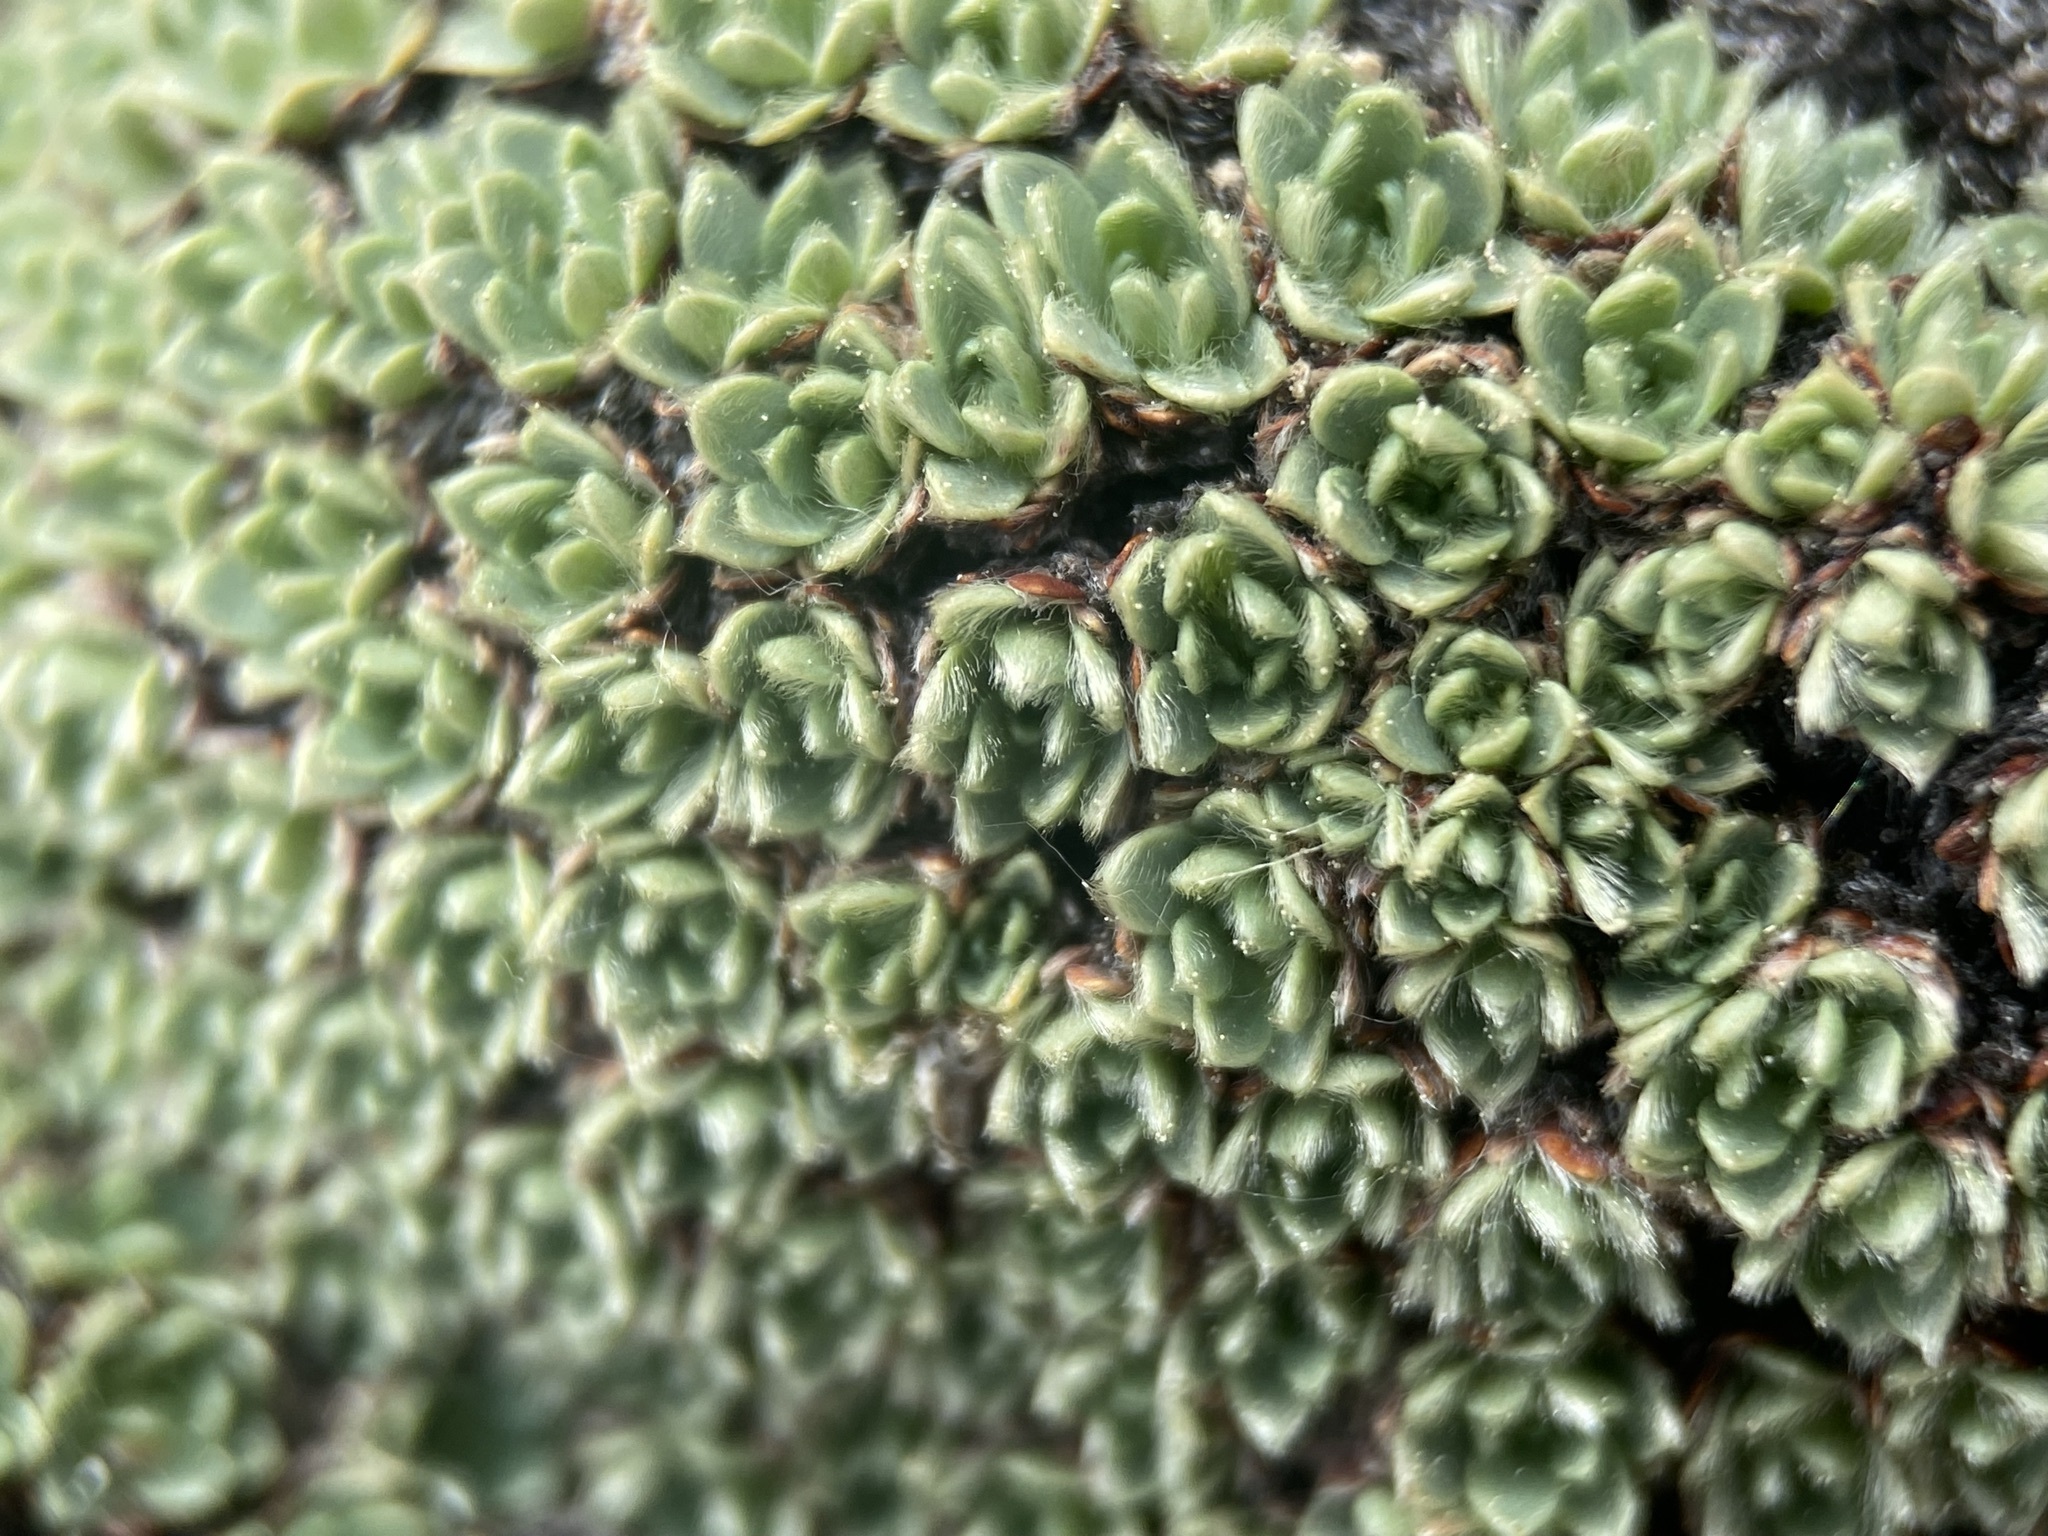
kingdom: Plantae
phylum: Tracheophyta
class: Magnoliopsida
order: Rosales
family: Rosaceae
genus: Kelseya
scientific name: Kelseya uniflora
